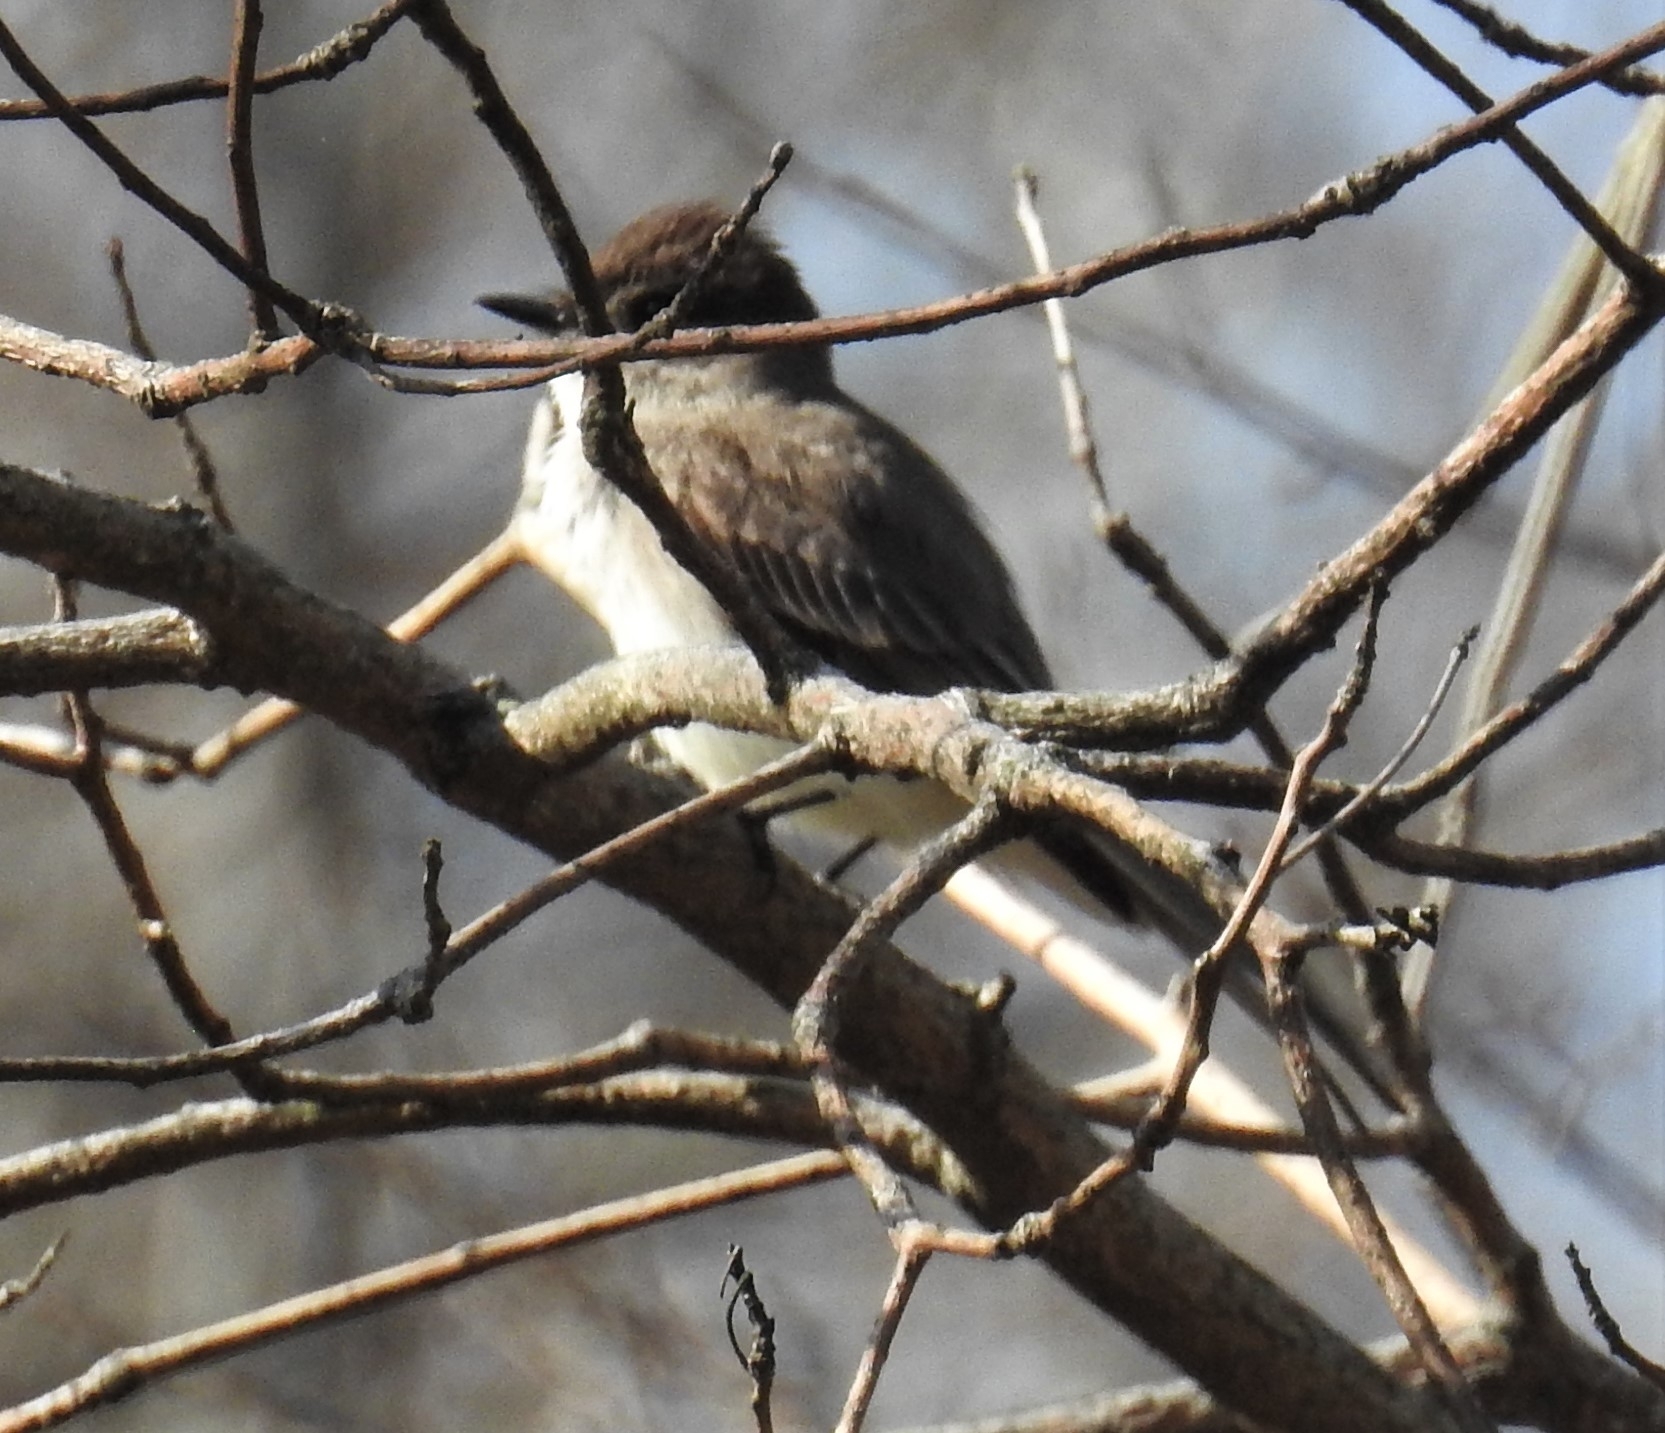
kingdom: Animalia
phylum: Chordata
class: Aves
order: Passeriformes
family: Tyrannidae
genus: Sayornis
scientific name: Sayornis phoebe
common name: Eastern phoebe
